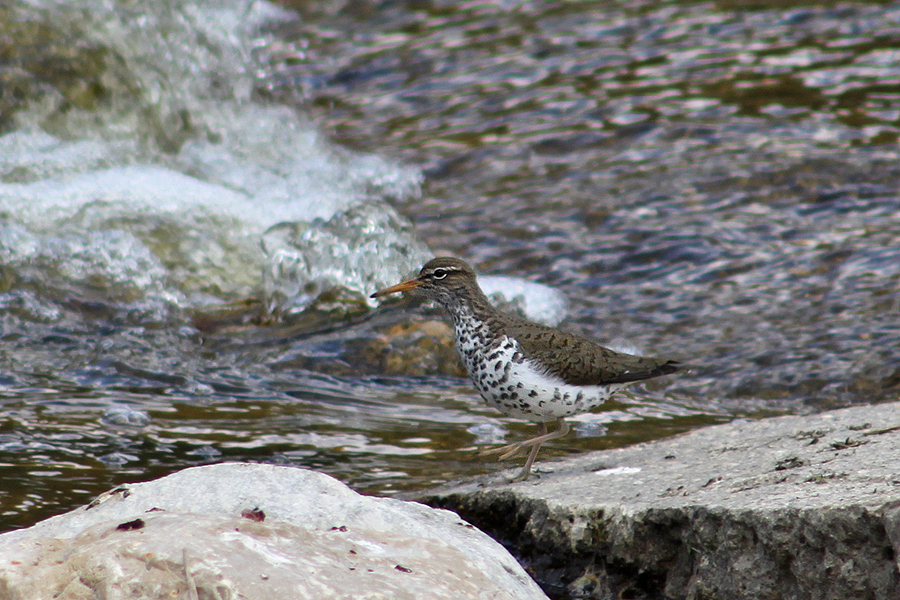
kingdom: Animalia
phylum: Chordata
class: Aves
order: Charadriiformes
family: Scolopacidae
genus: Actitis
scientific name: Actitis macularius
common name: Spotted sandpiper
